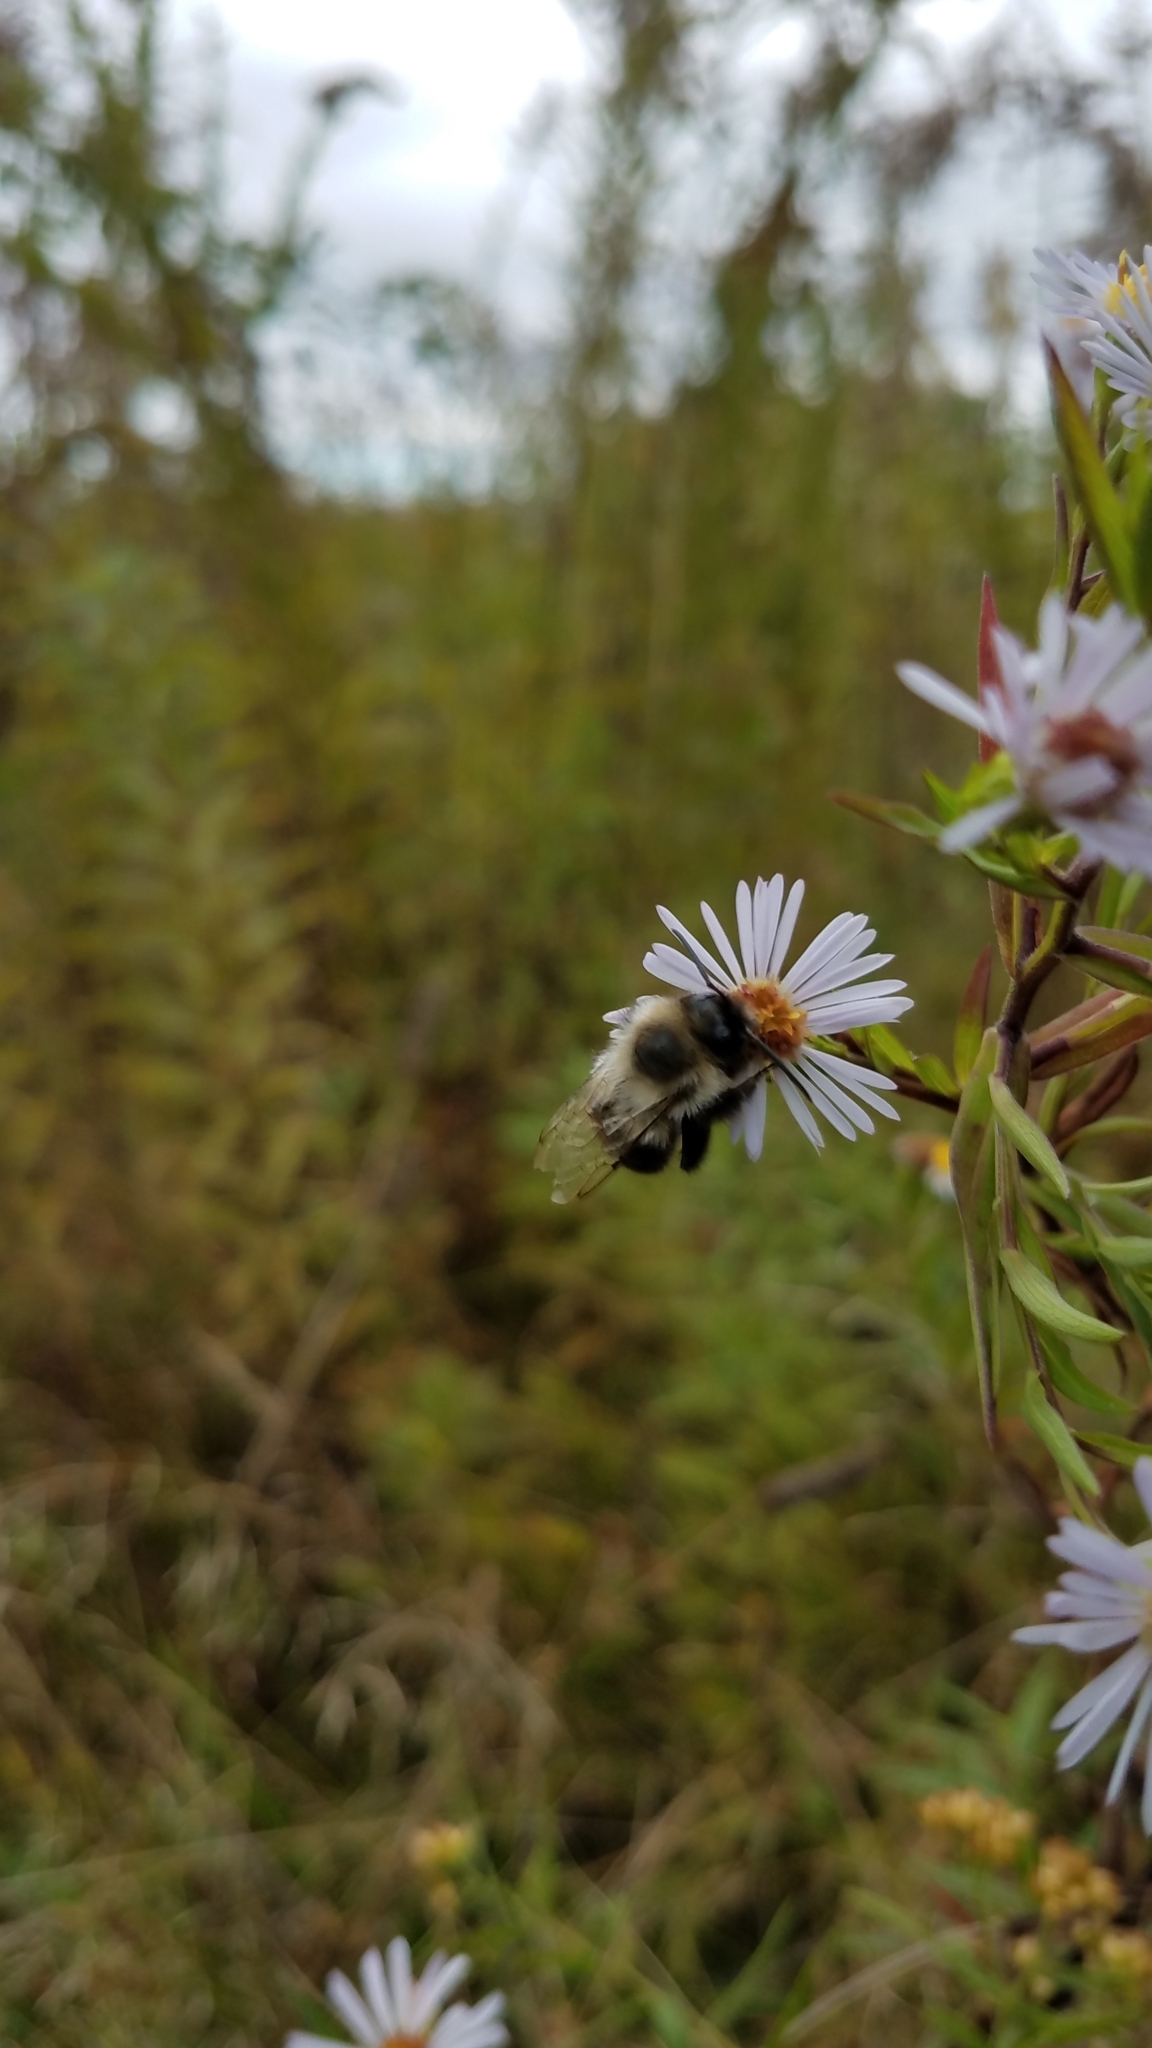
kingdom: Animalia
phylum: Arthropoda
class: Insecta
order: Hymenoptera
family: Apidae
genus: Bombus
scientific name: Bombus impatiens
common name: Common eastern bumble bee
